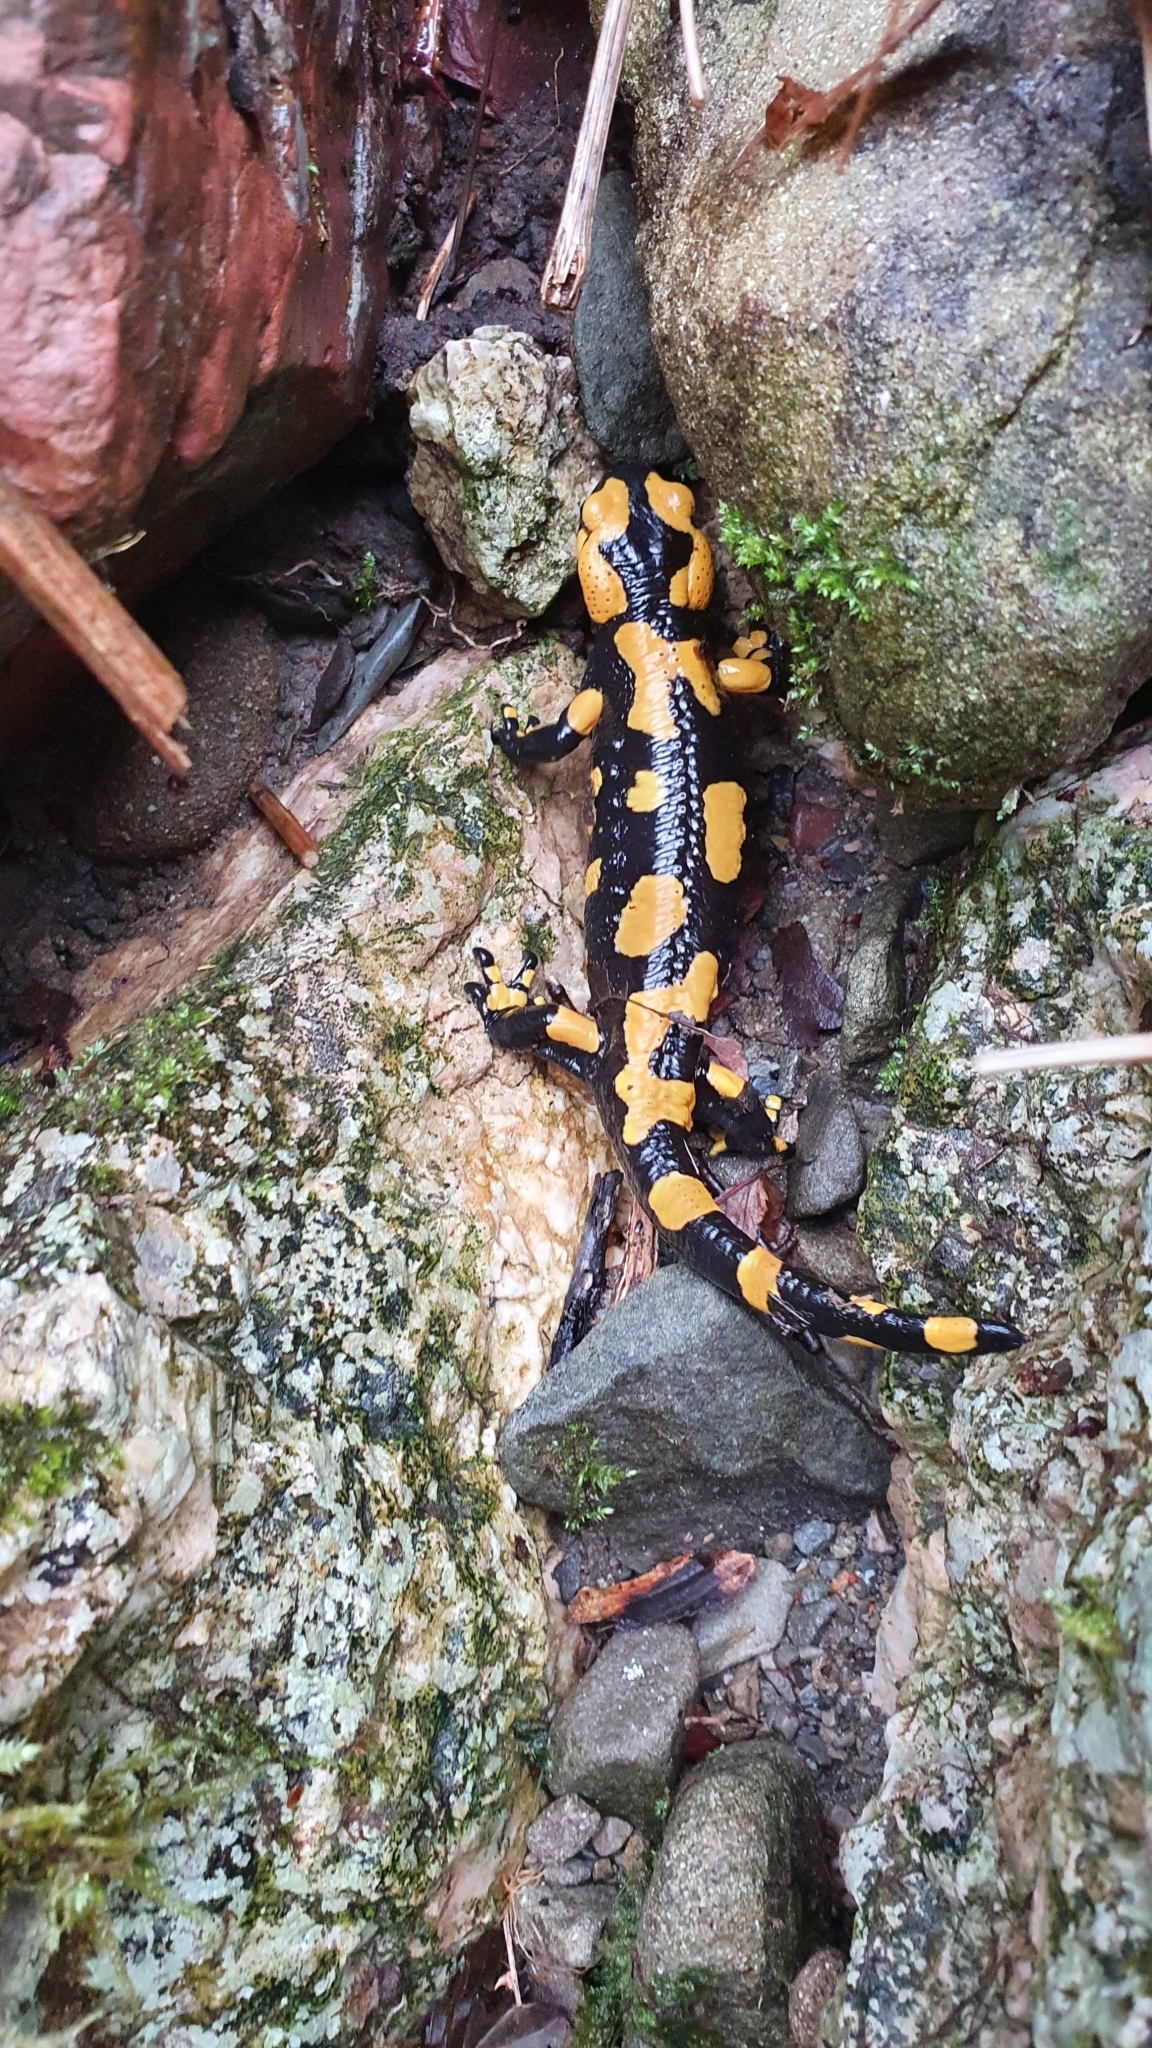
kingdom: Animalia
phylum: Chordata
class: Amphibia
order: Caudata
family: Salamandridae
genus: Salamandra
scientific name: Salamandra salamandra
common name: Fire salamander
